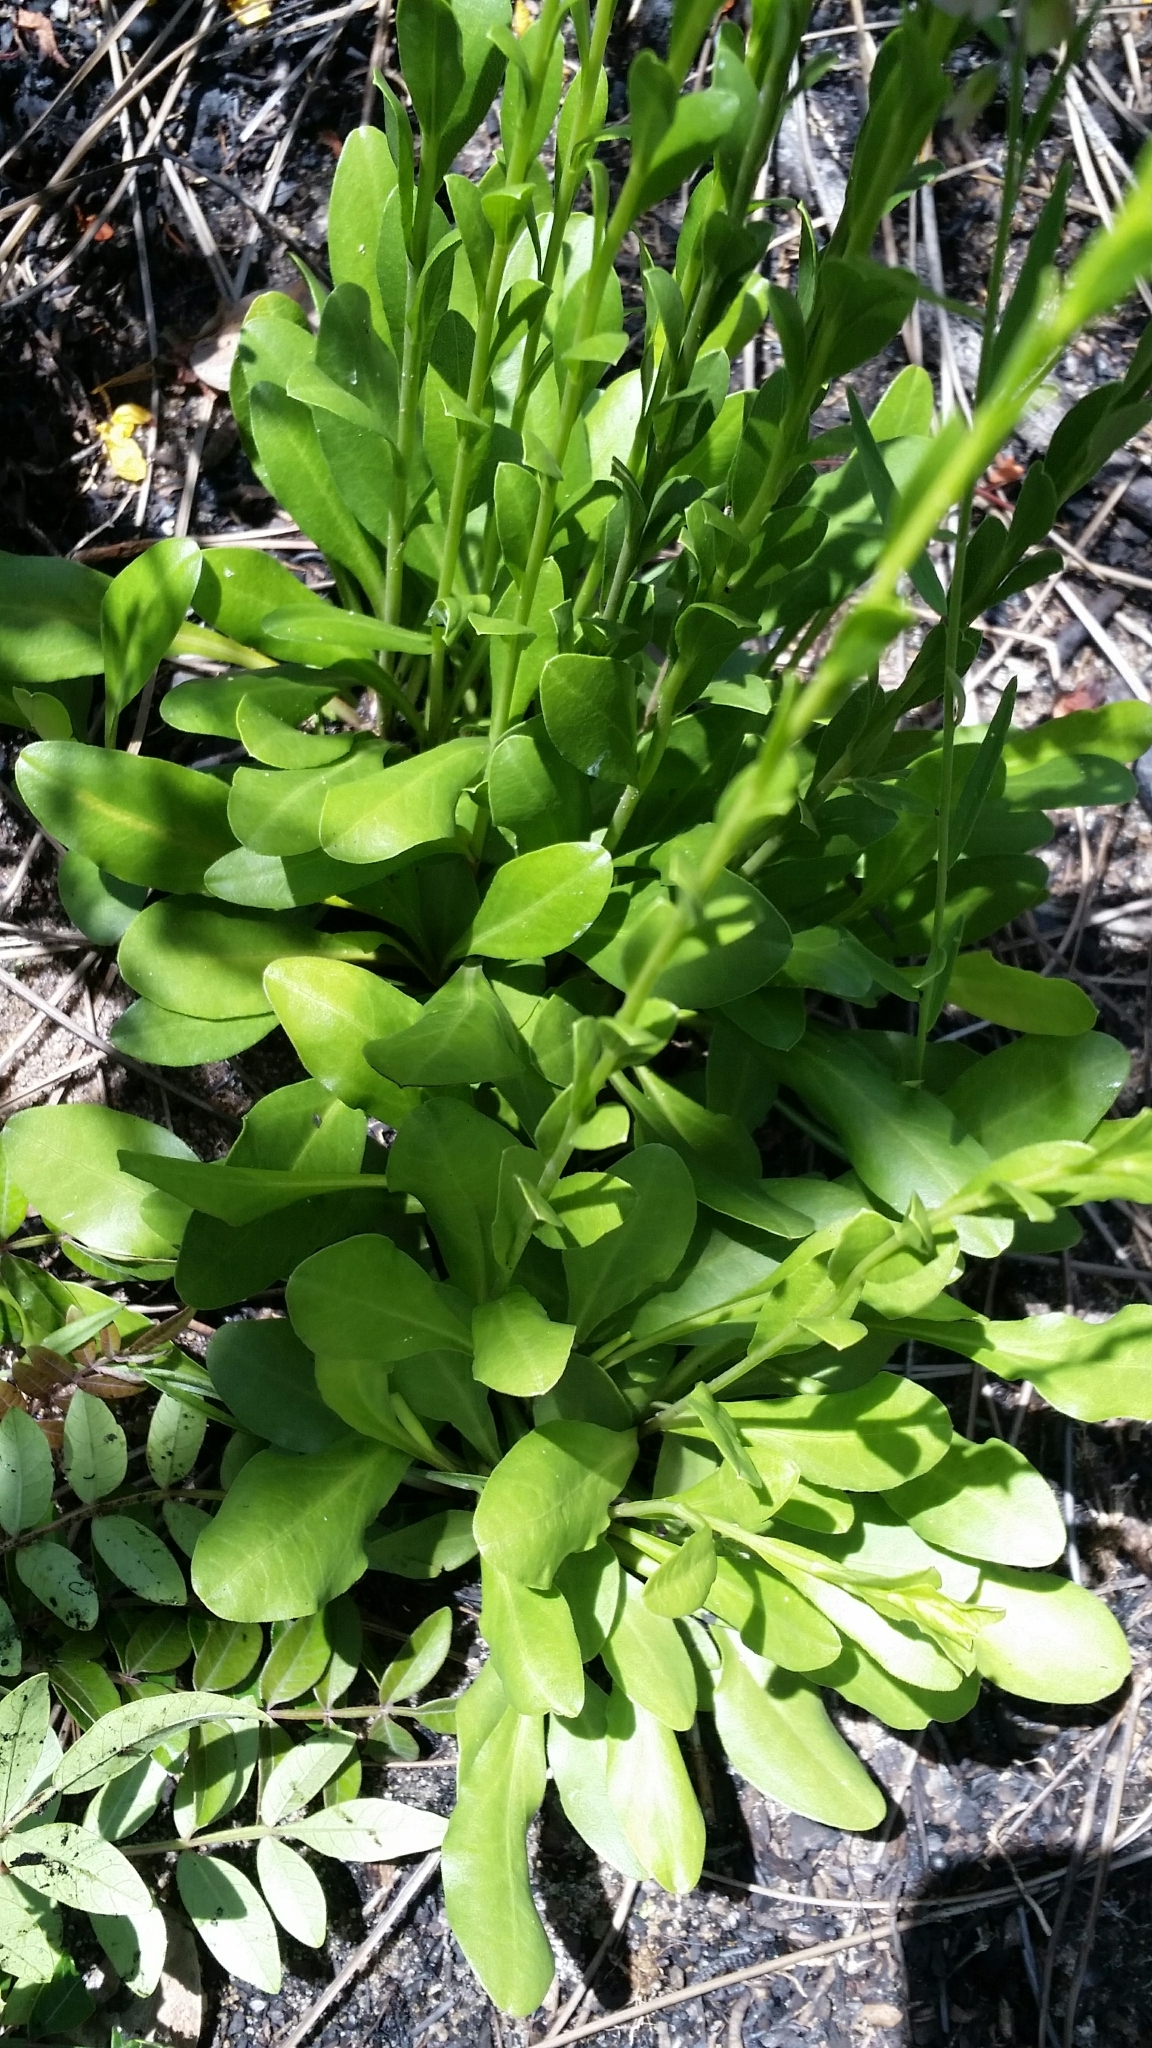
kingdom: Plantae
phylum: Tracheophyta
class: Magnoliopsida
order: Asterales
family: Asteraceae
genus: Solidago
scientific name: Solidago virgata
